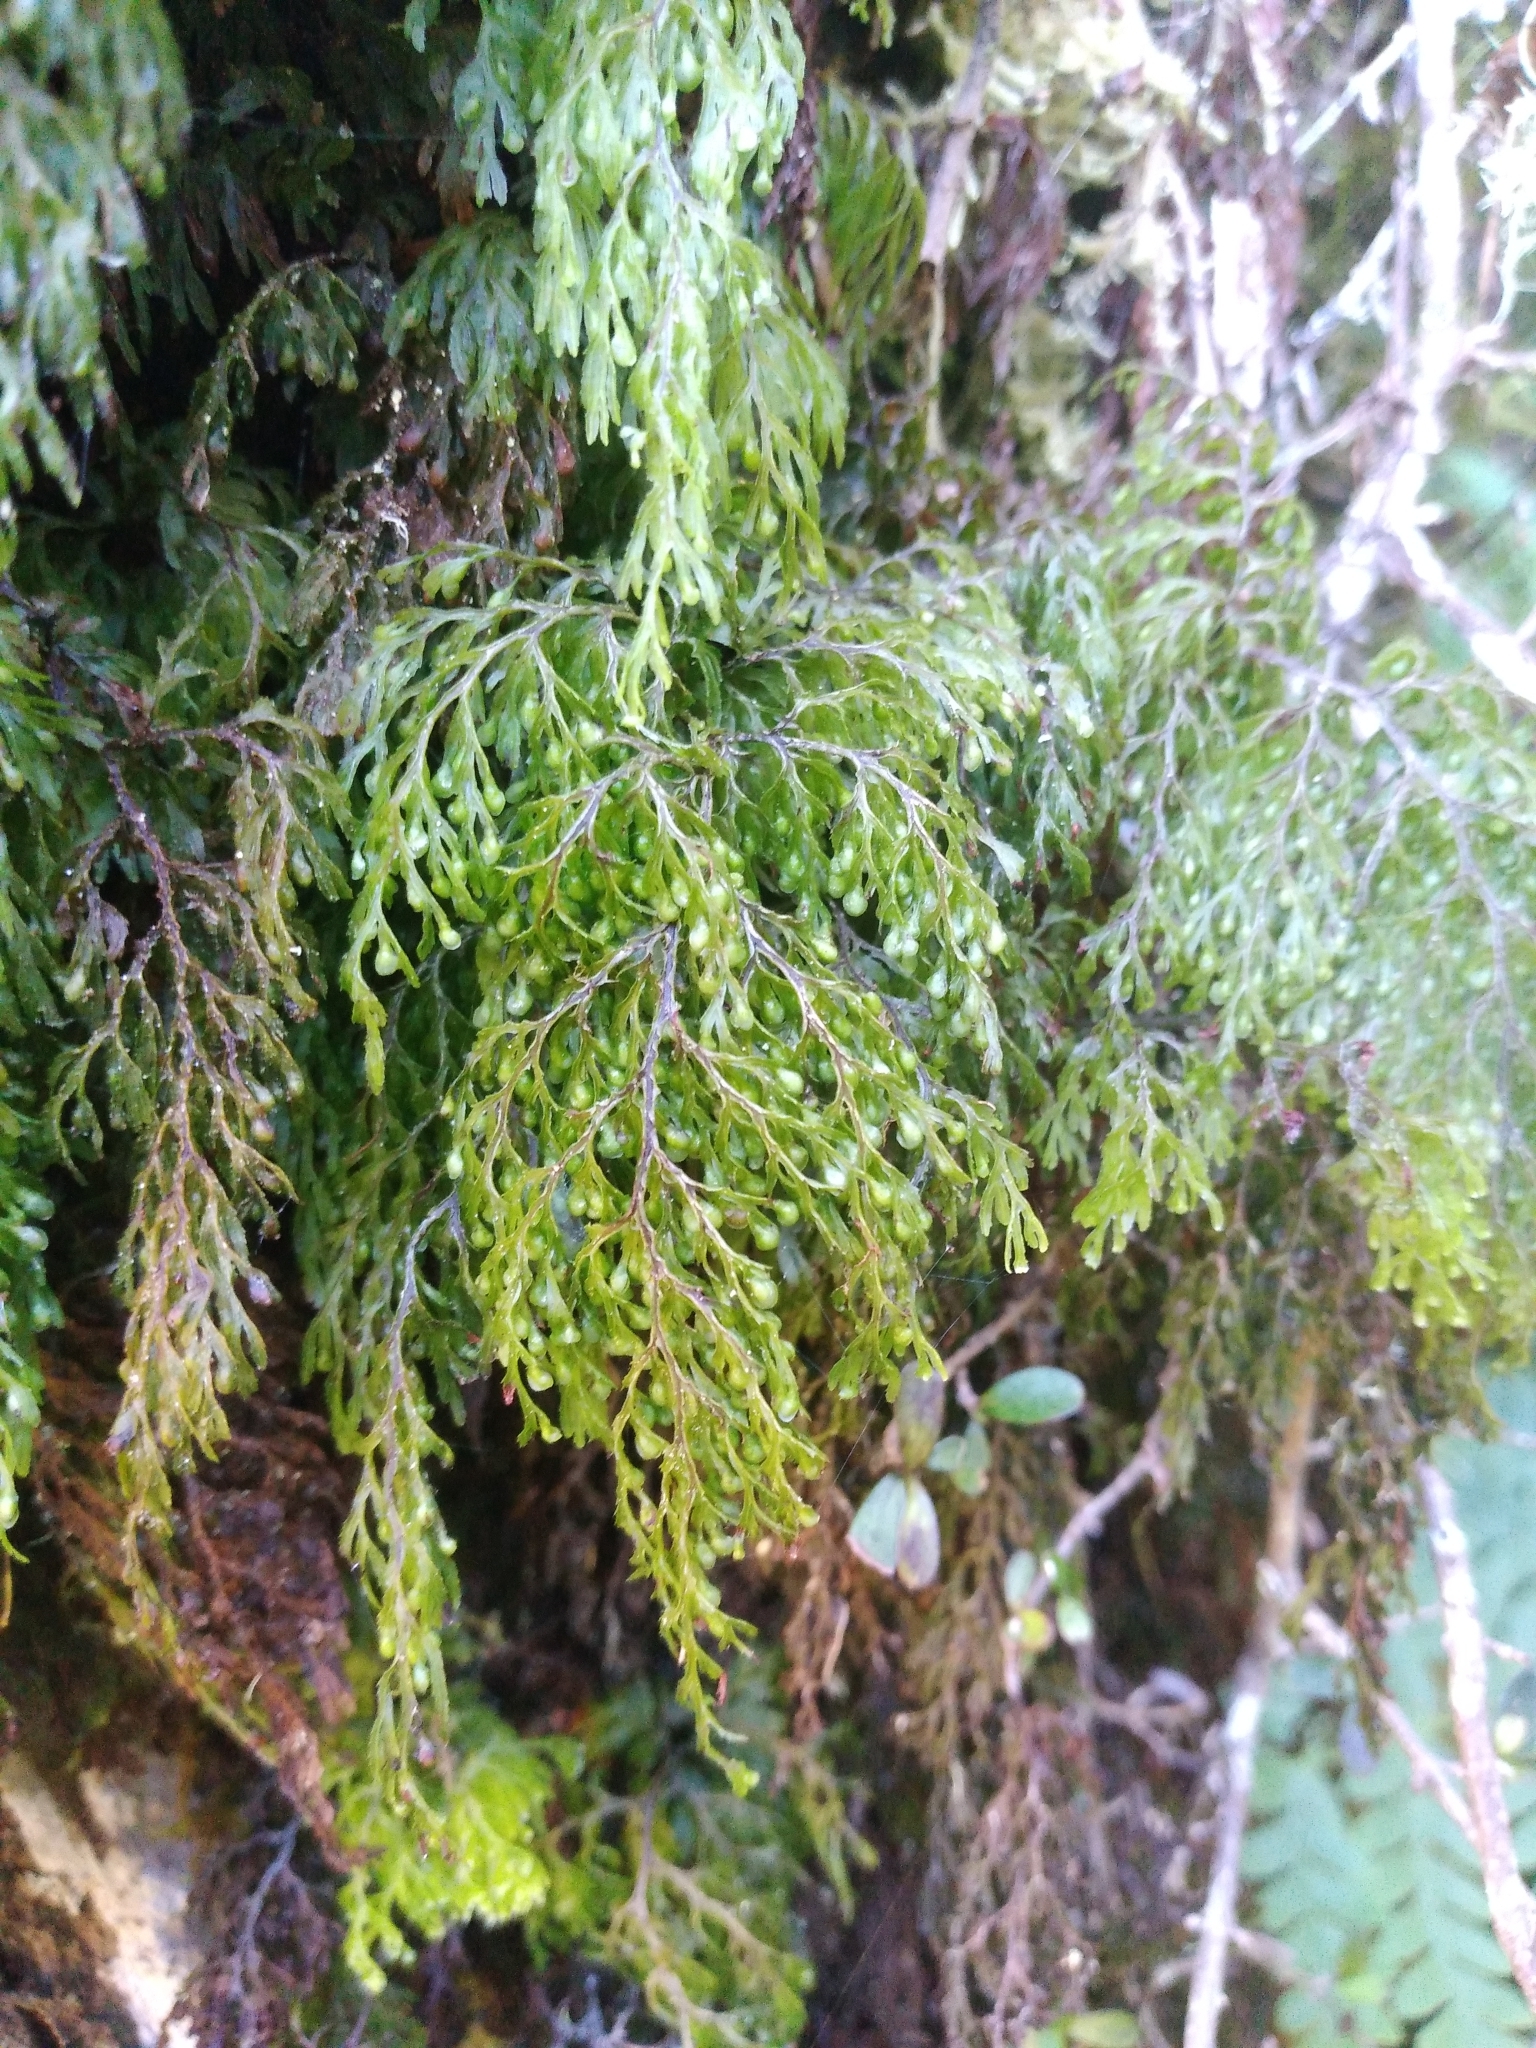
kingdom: Plantae
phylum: Tracheophyta
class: Polypodiopsida
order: Hymenophyllales
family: Hymenophyllaceae
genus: Hymenophyllum
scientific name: Hymenophyllum bivalve
